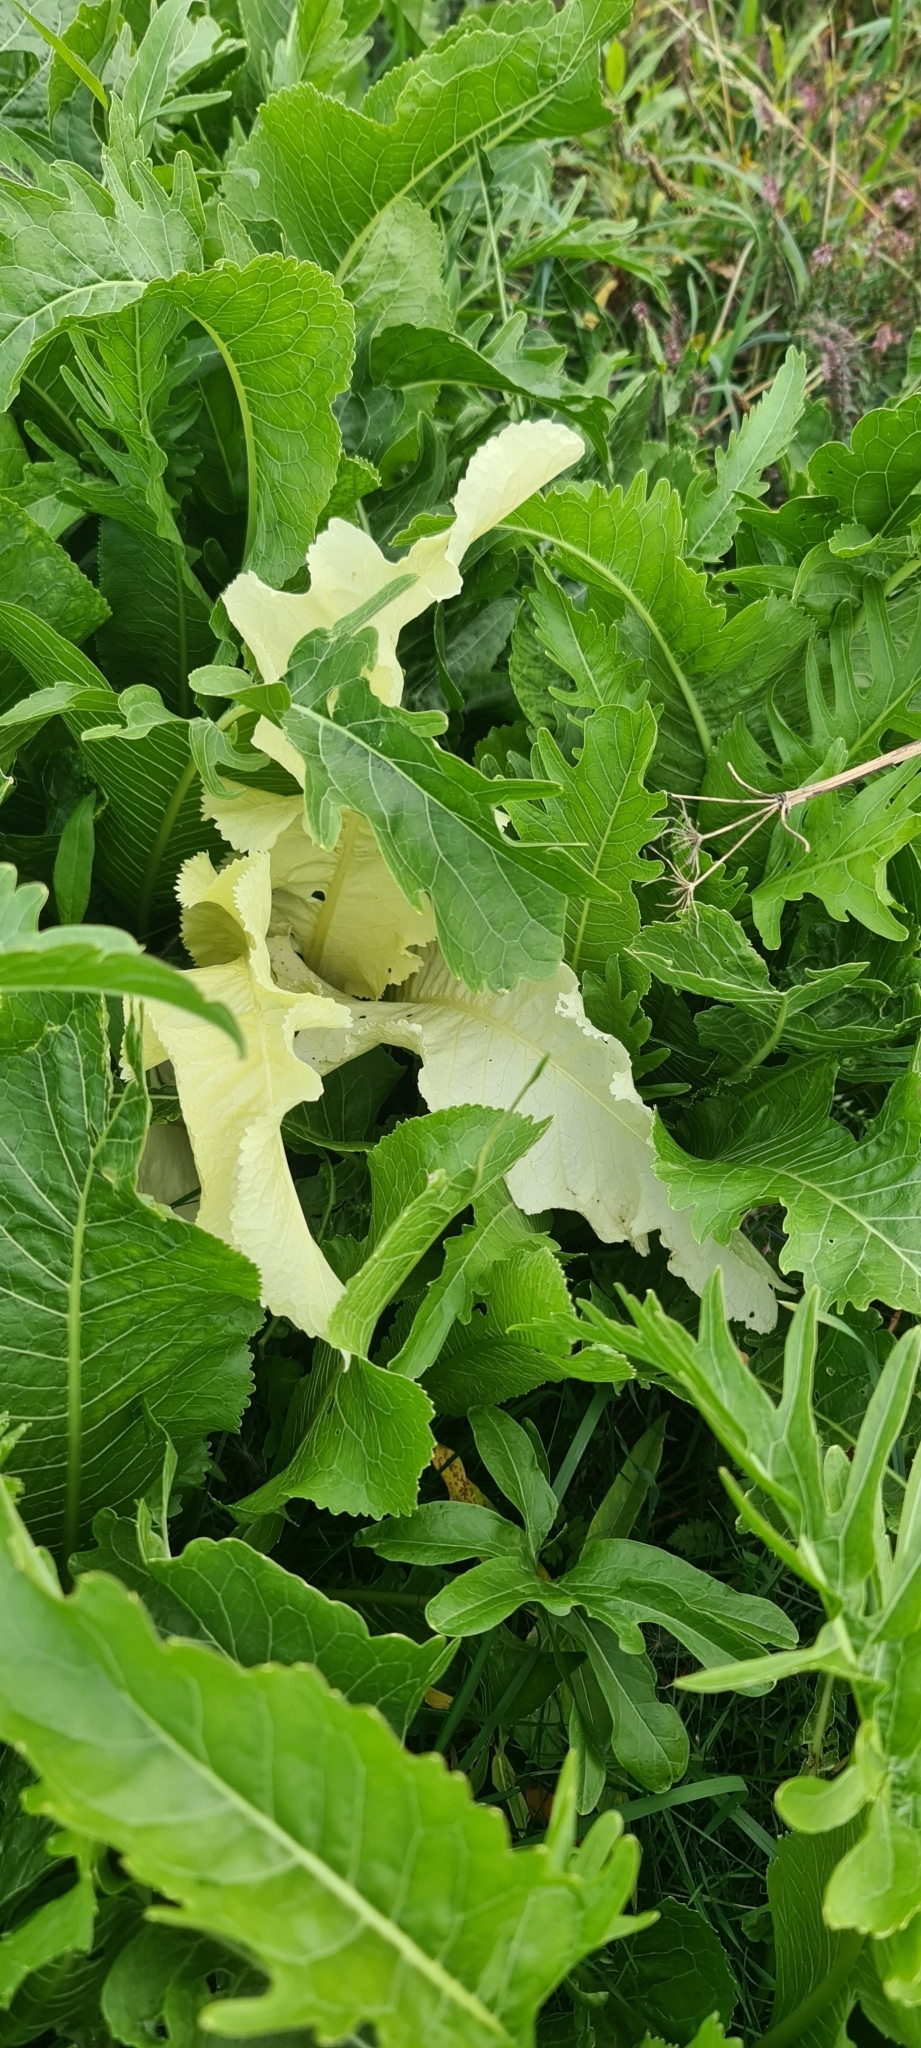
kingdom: Plantae
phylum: Tracheophyta
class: Magnoliopsida
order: Brassicales
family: Brassicaceae
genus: Armoracia
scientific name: Armoracia rusticana
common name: Horseradish
